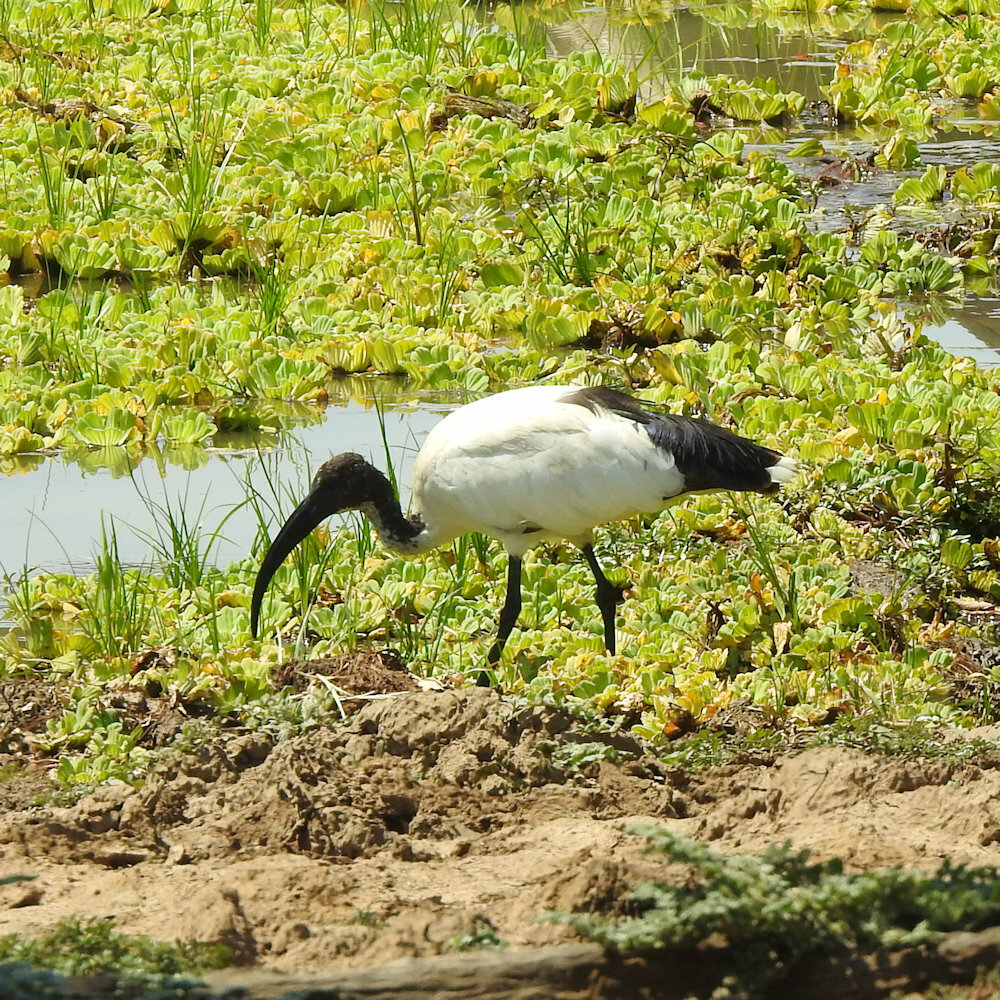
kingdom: Animalia
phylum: Chordata
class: Aves
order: Pelecaniformes
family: Threskiornithidae
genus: Threskiornis
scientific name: Threskiornis aethiopicus
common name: Sacred ibis
